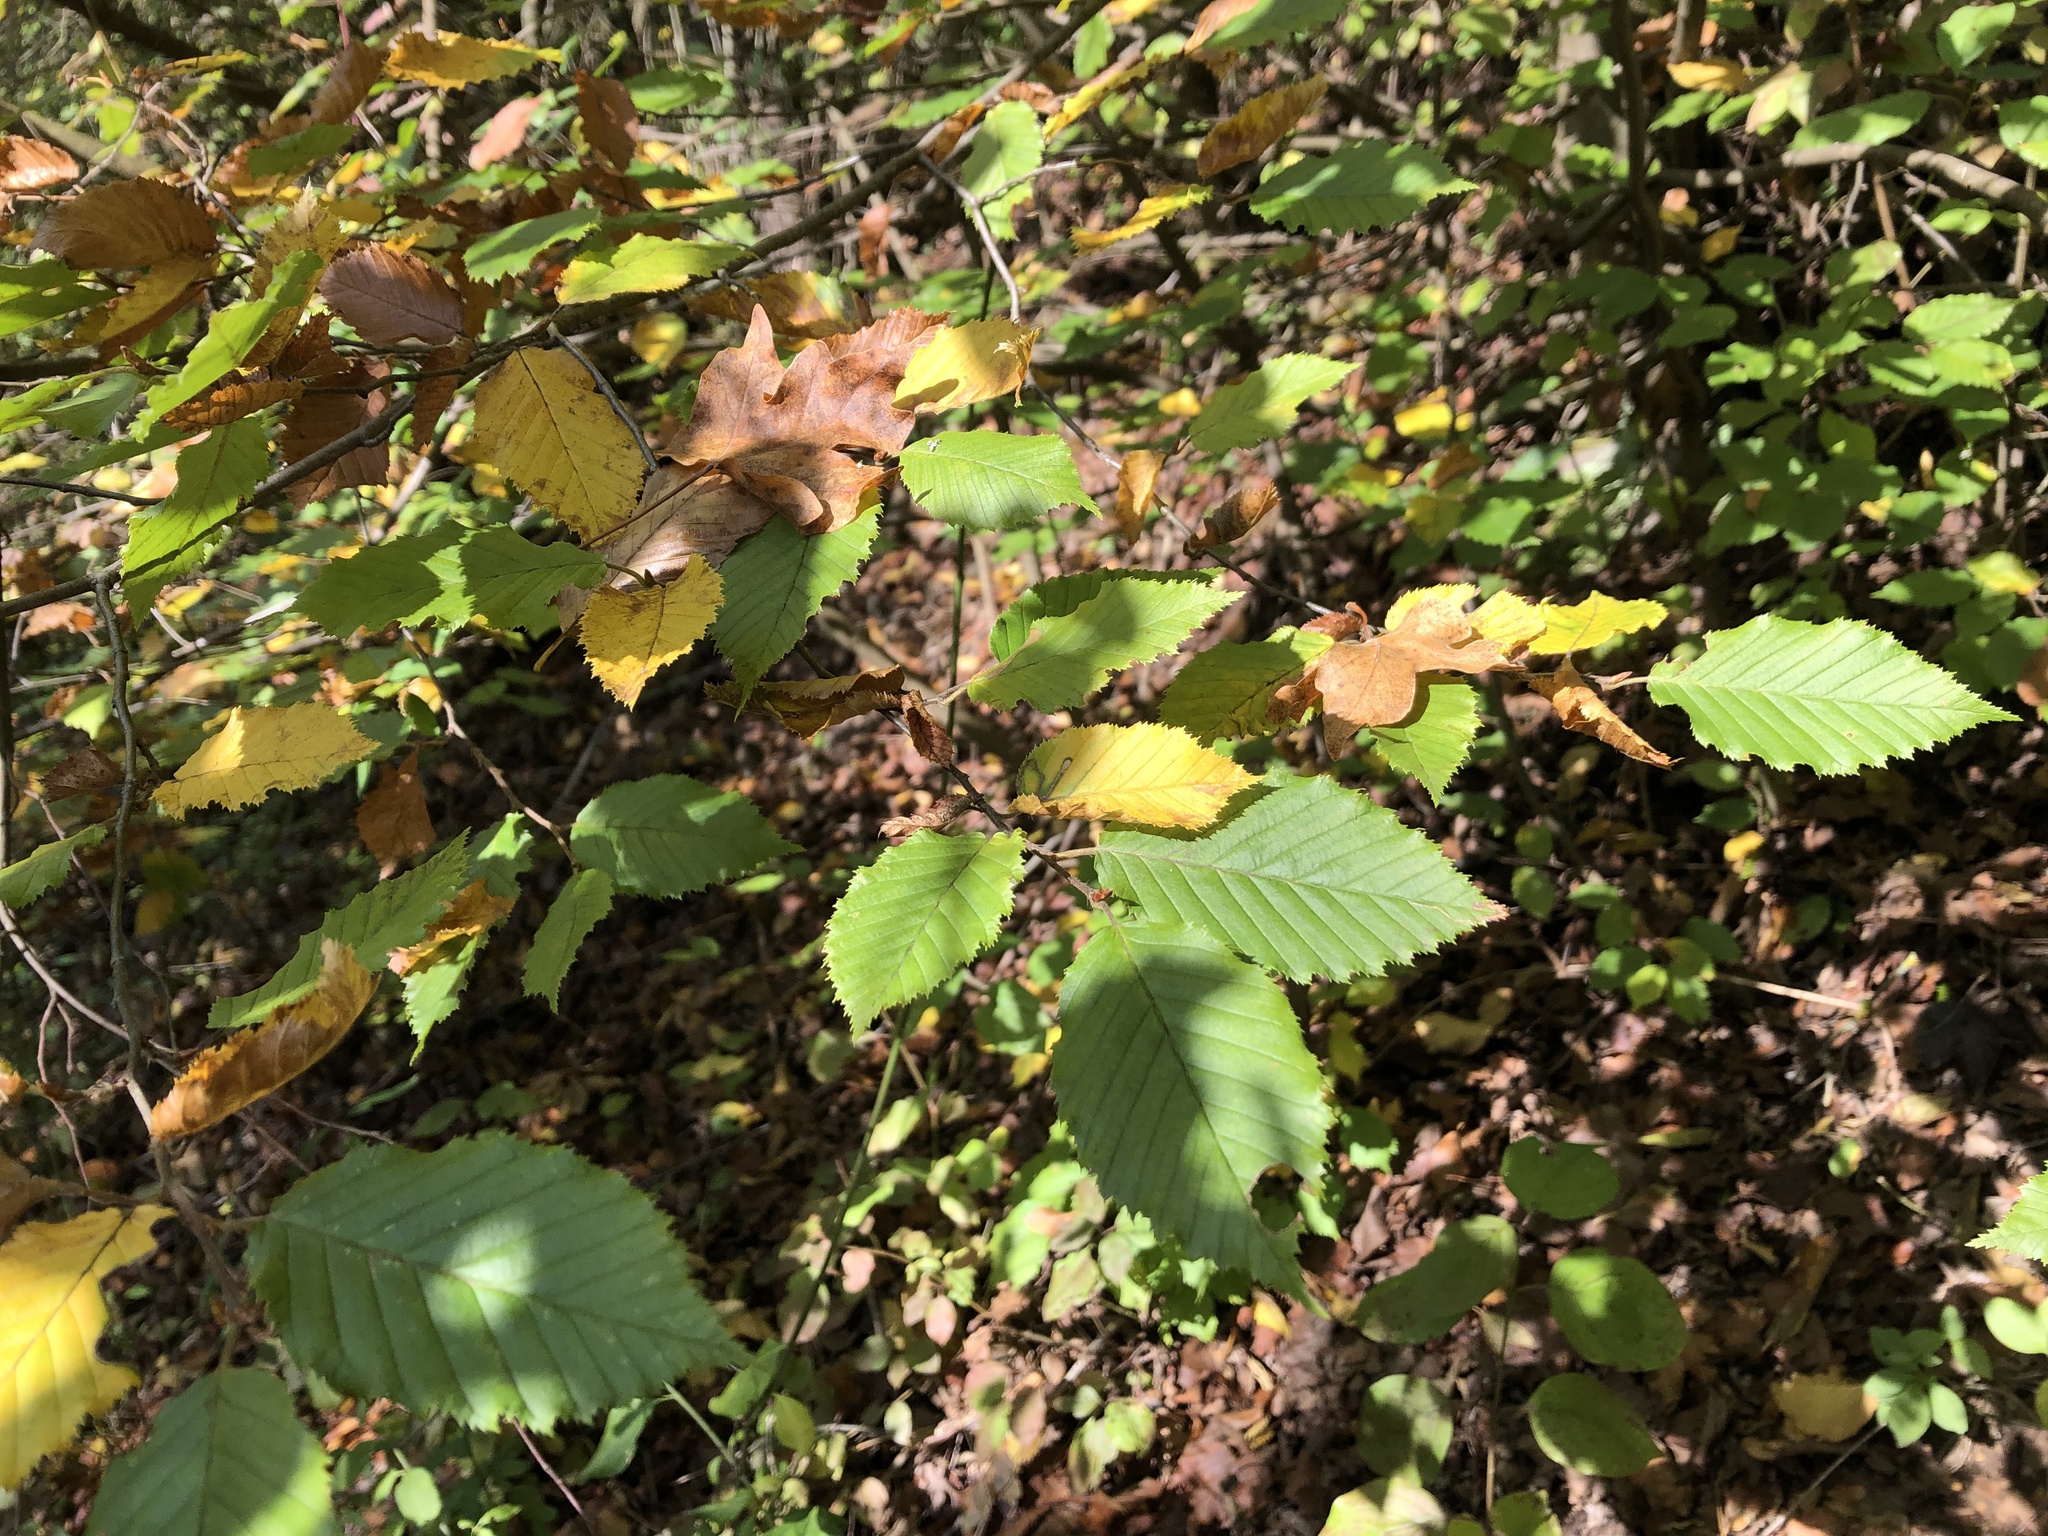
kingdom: Plantae
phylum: Tracheophyta
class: Magnoliopsida
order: Fagales
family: Betulaceae
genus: Carpinus
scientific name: Carpinus betulus
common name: Hornbeam
